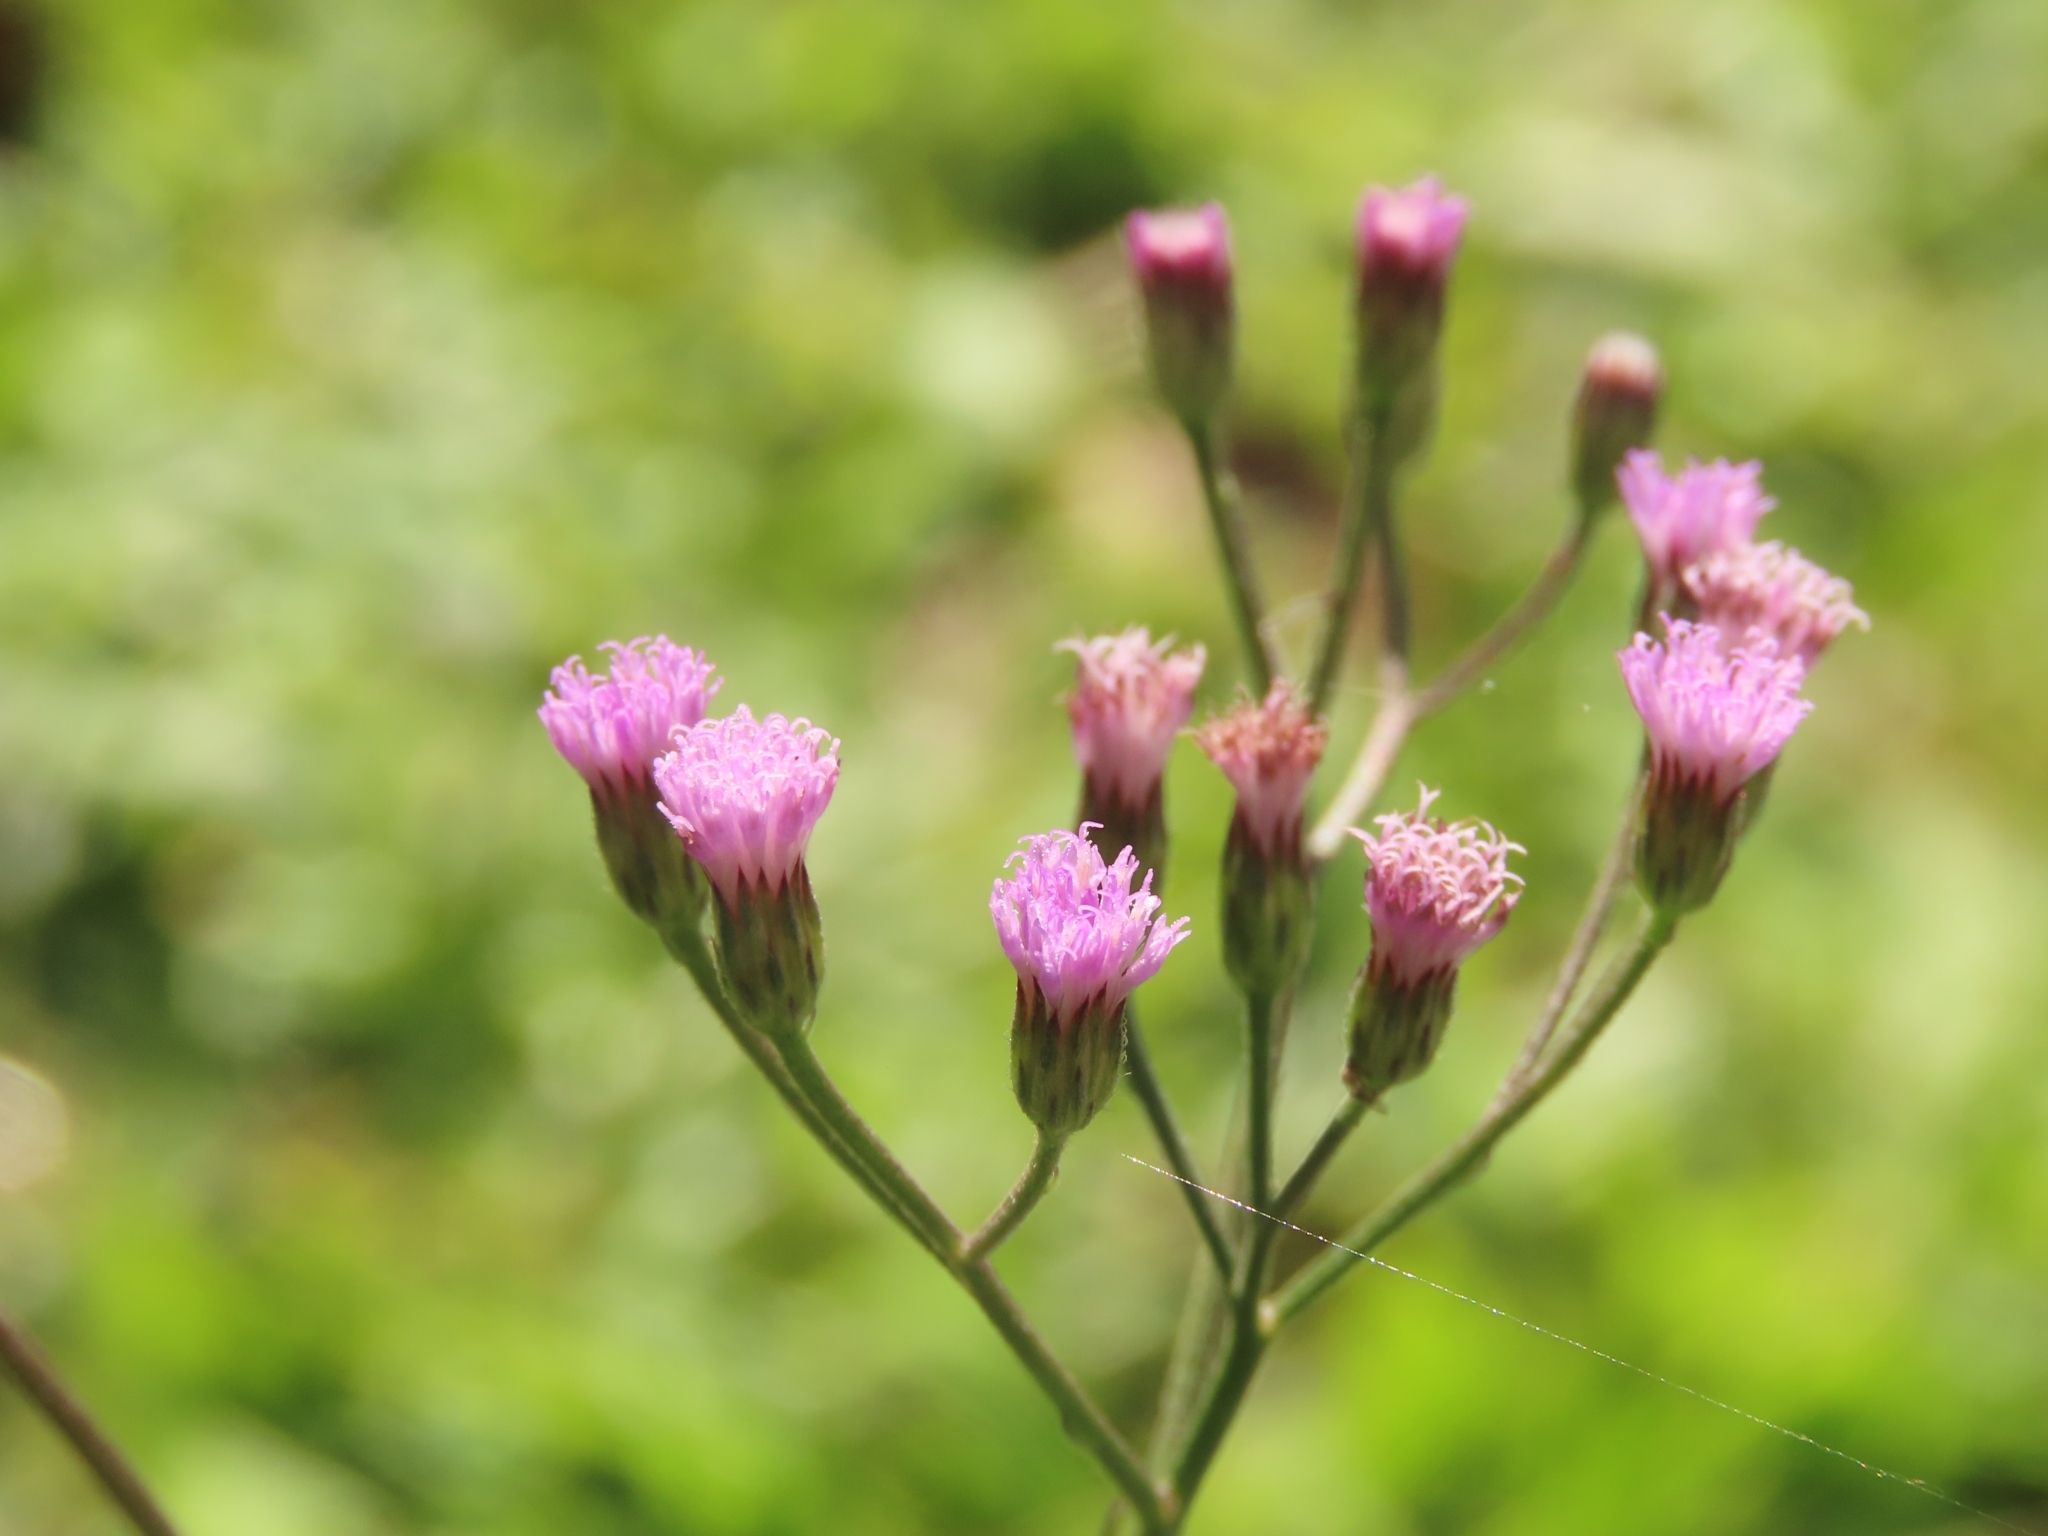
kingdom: Plantae
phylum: Tracheophyta
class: Magnoliopsida
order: Asterales
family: Asteraceae
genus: Cyanthillium
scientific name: Cyanthillium cinereum
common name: Little ironweed
